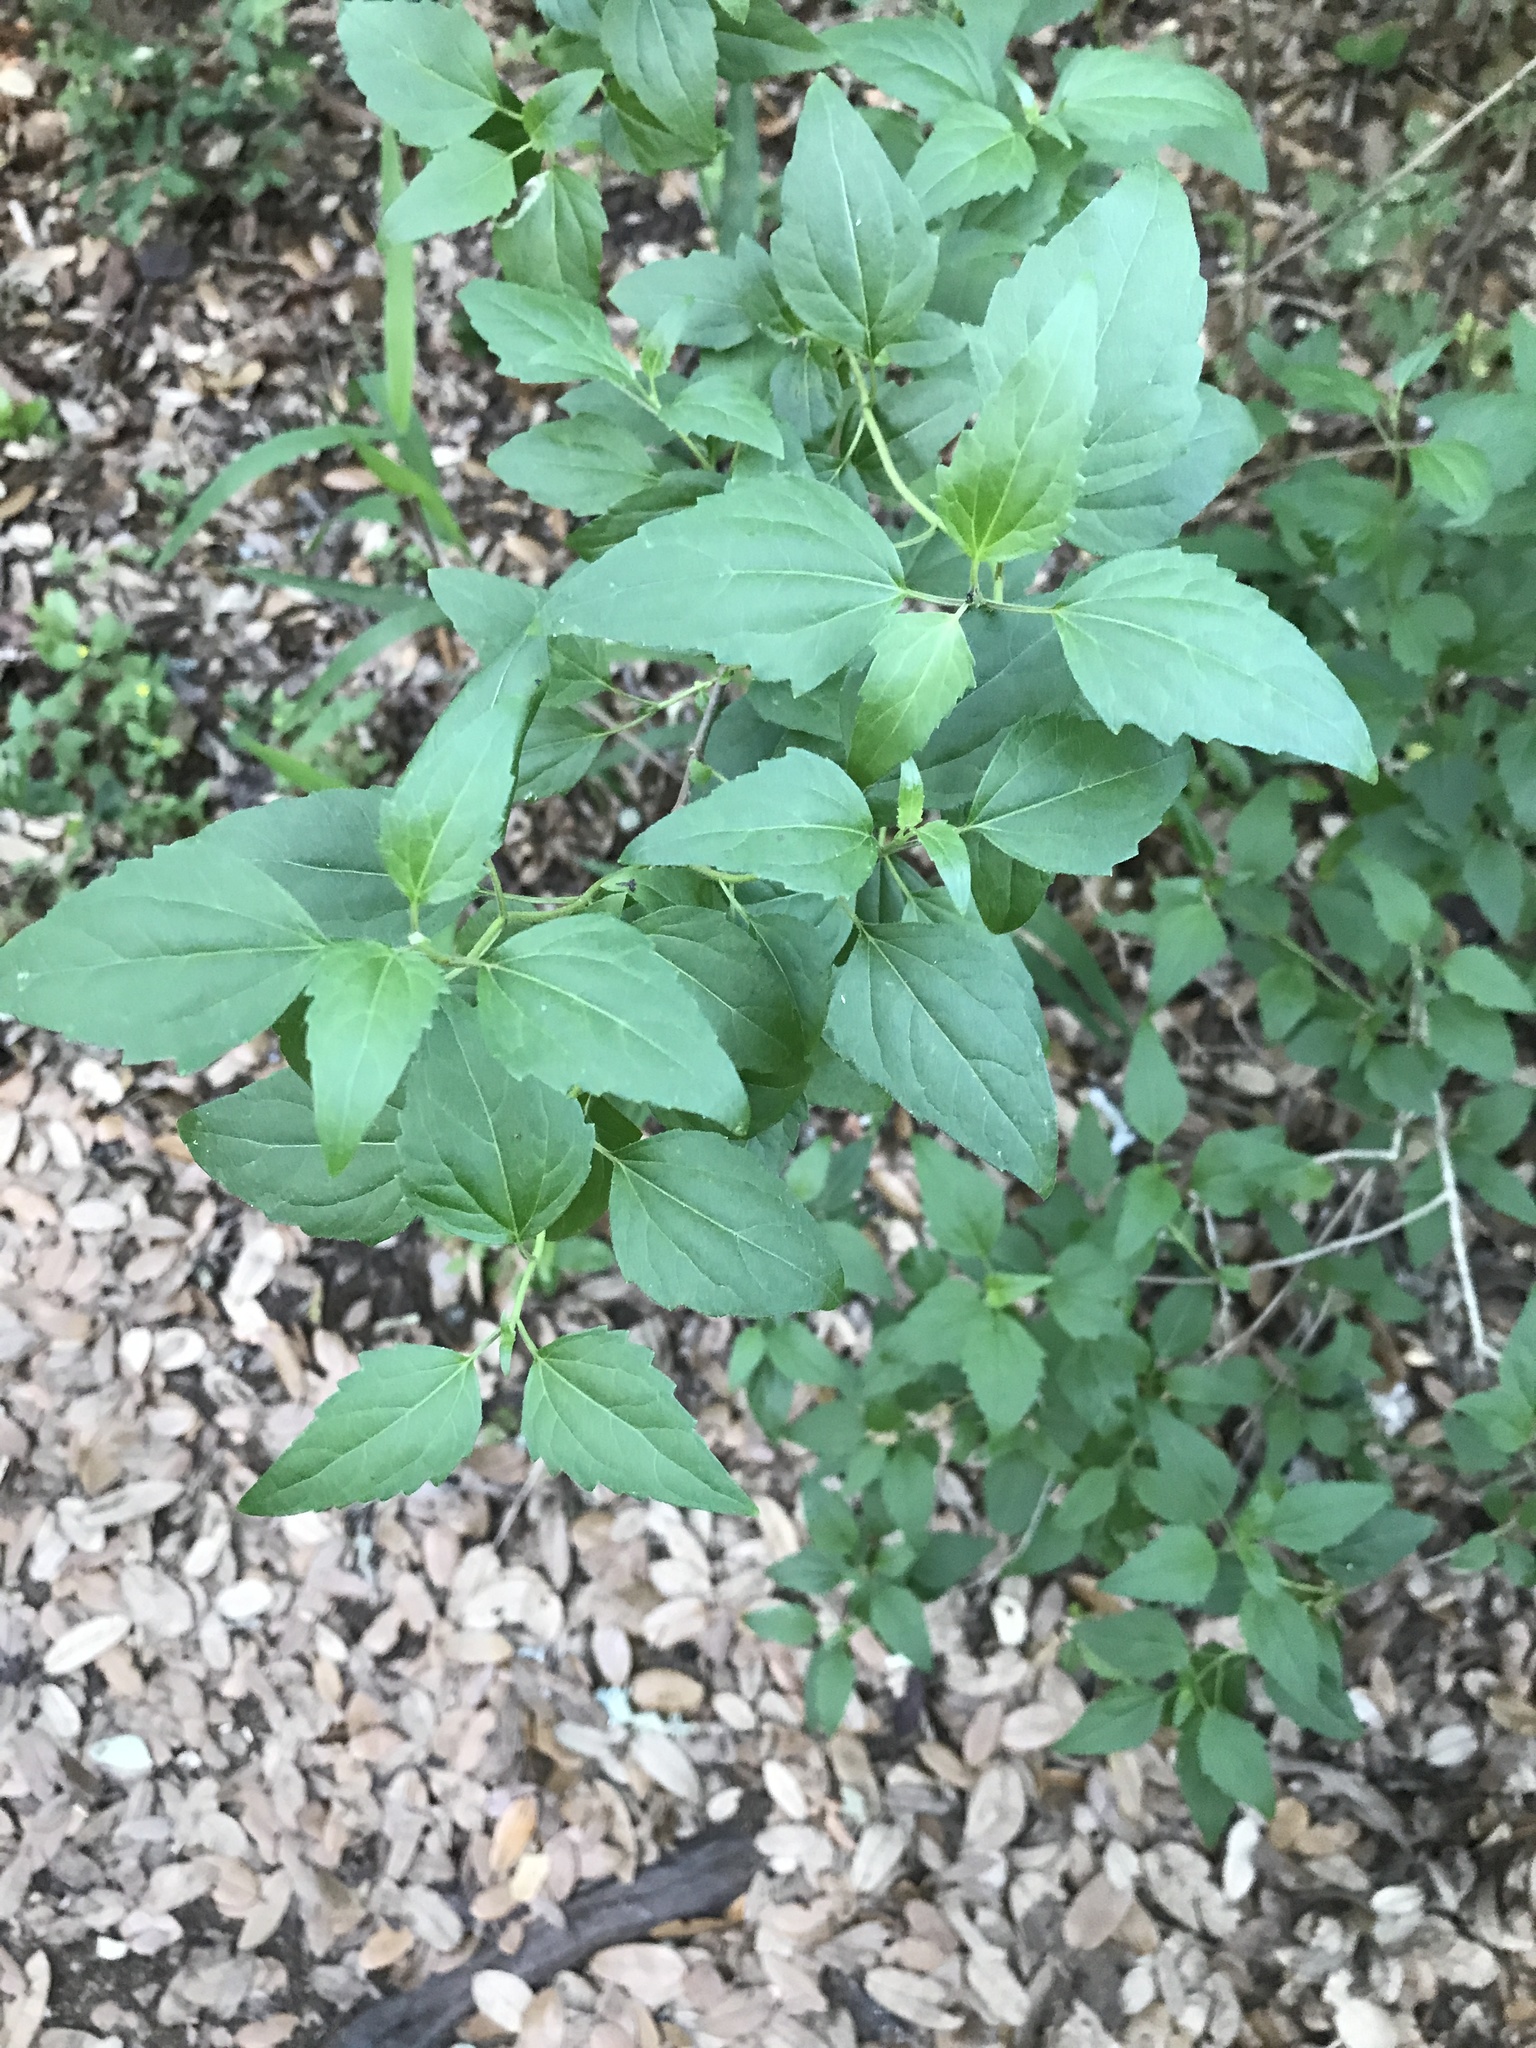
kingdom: Plantae
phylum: Tracheophyta
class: Magnoliopsida
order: Asterales
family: Asteraceae
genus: Ageratina
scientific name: Ageratina havanensis
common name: Havana snakeroot
